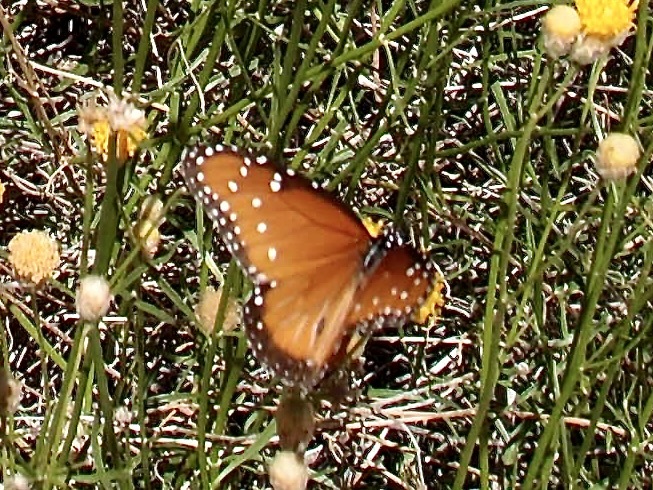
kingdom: Animalia
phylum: Arthropoda
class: Insecta
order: Lepidoptera
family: Nymphalidae
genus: Danaus
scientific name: Danaus gilippus
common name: Queen
